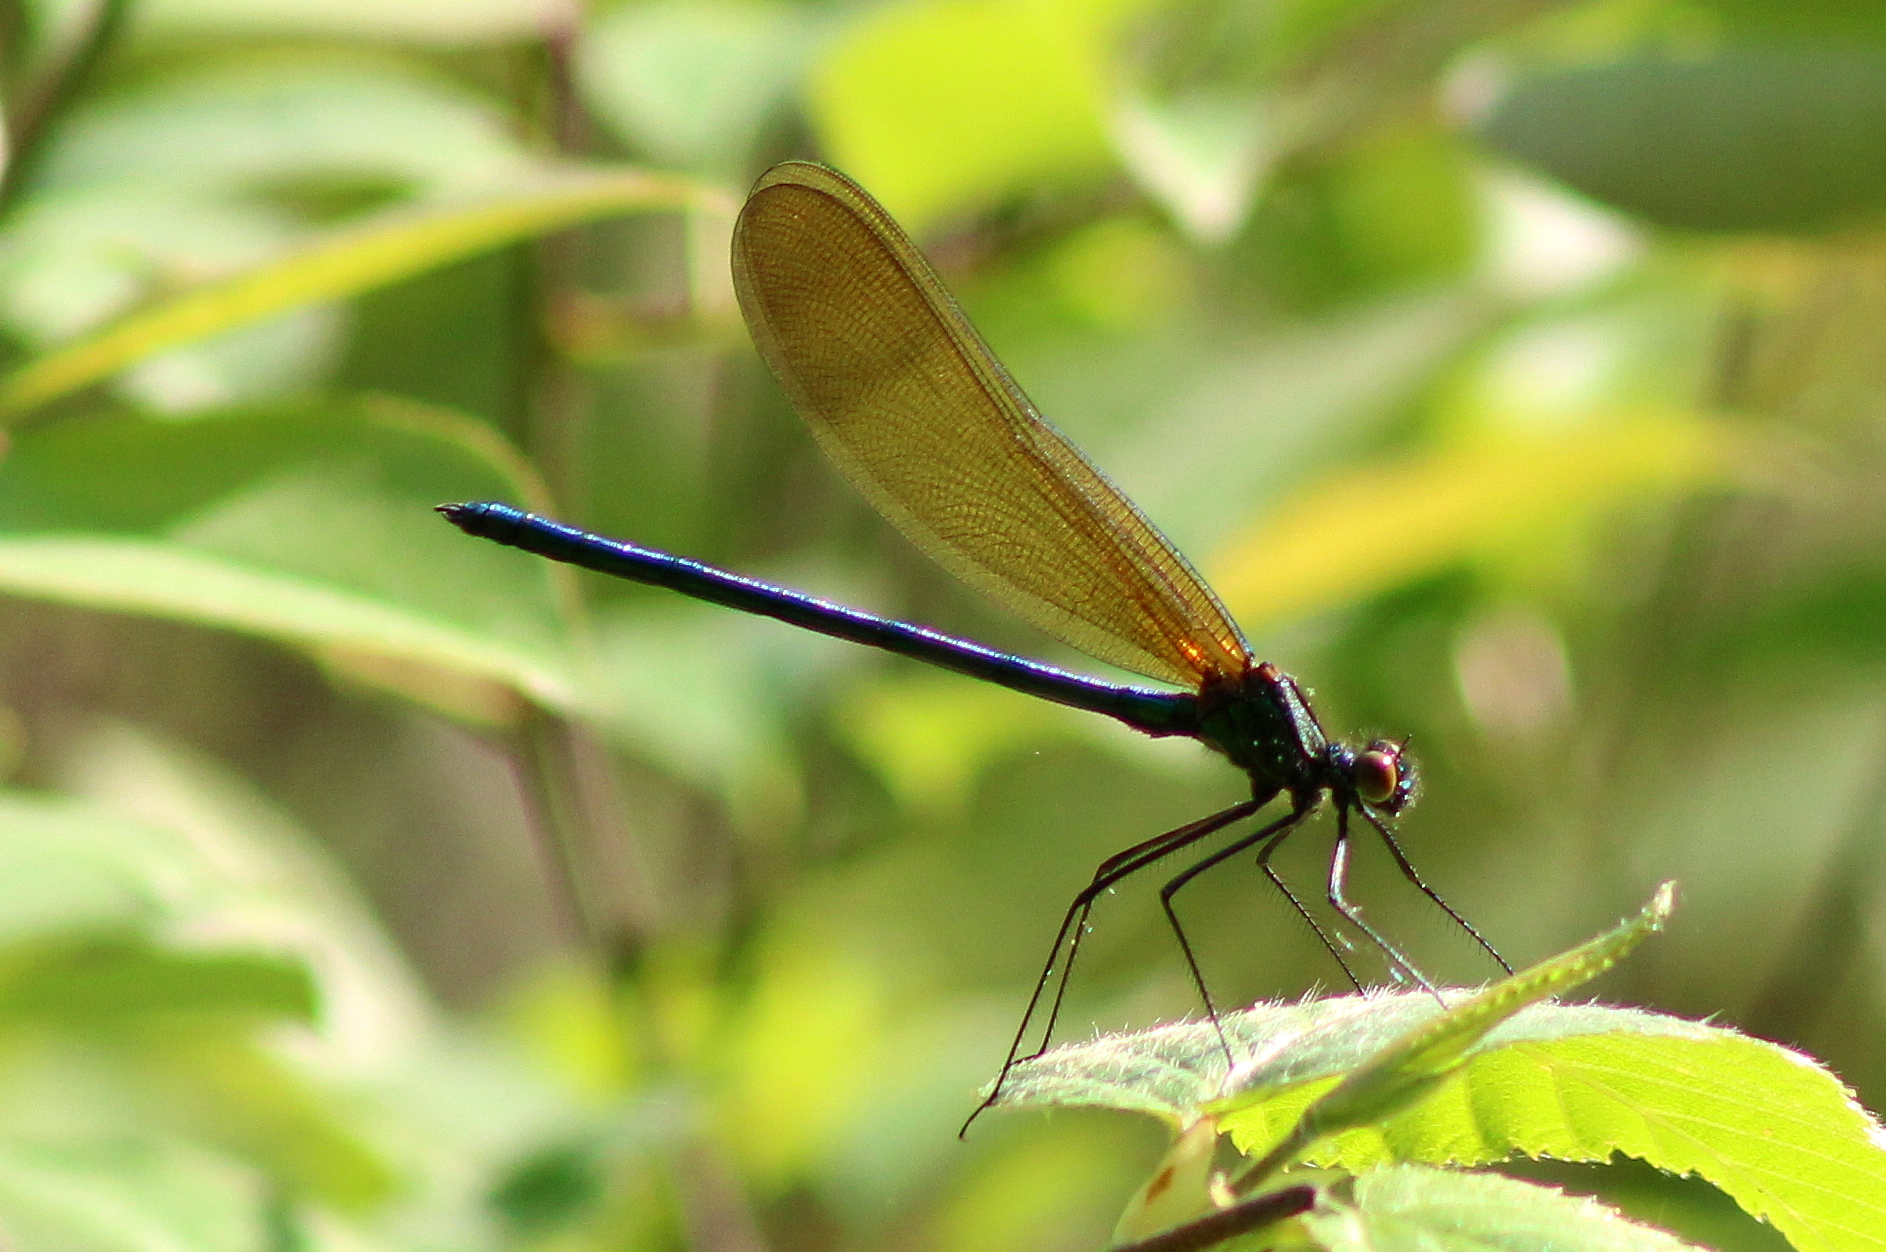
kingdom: Animalia
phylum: Arthropoda
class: Insecta
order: Odonata
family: Calopterygidae
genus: Calopteryx
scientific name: Calopteryx aequabilis
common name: River jewelwing
